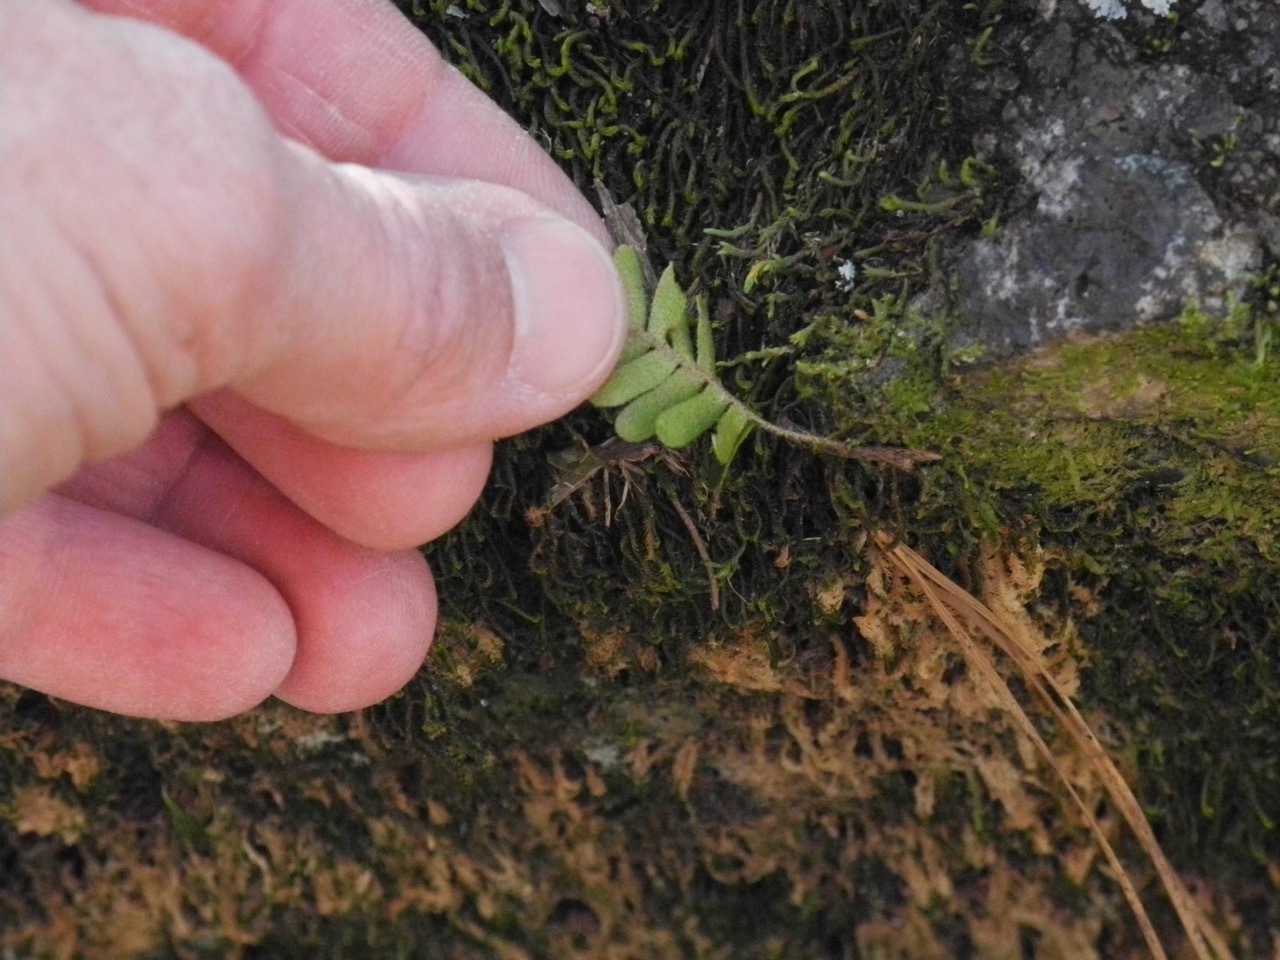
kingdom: Plantae
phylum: Tracheophyta
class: Polypodiopsida
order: Polypodiales
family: Polypodiaceae
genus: Pleopeltis
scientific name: Pleopeltis michauxiana
